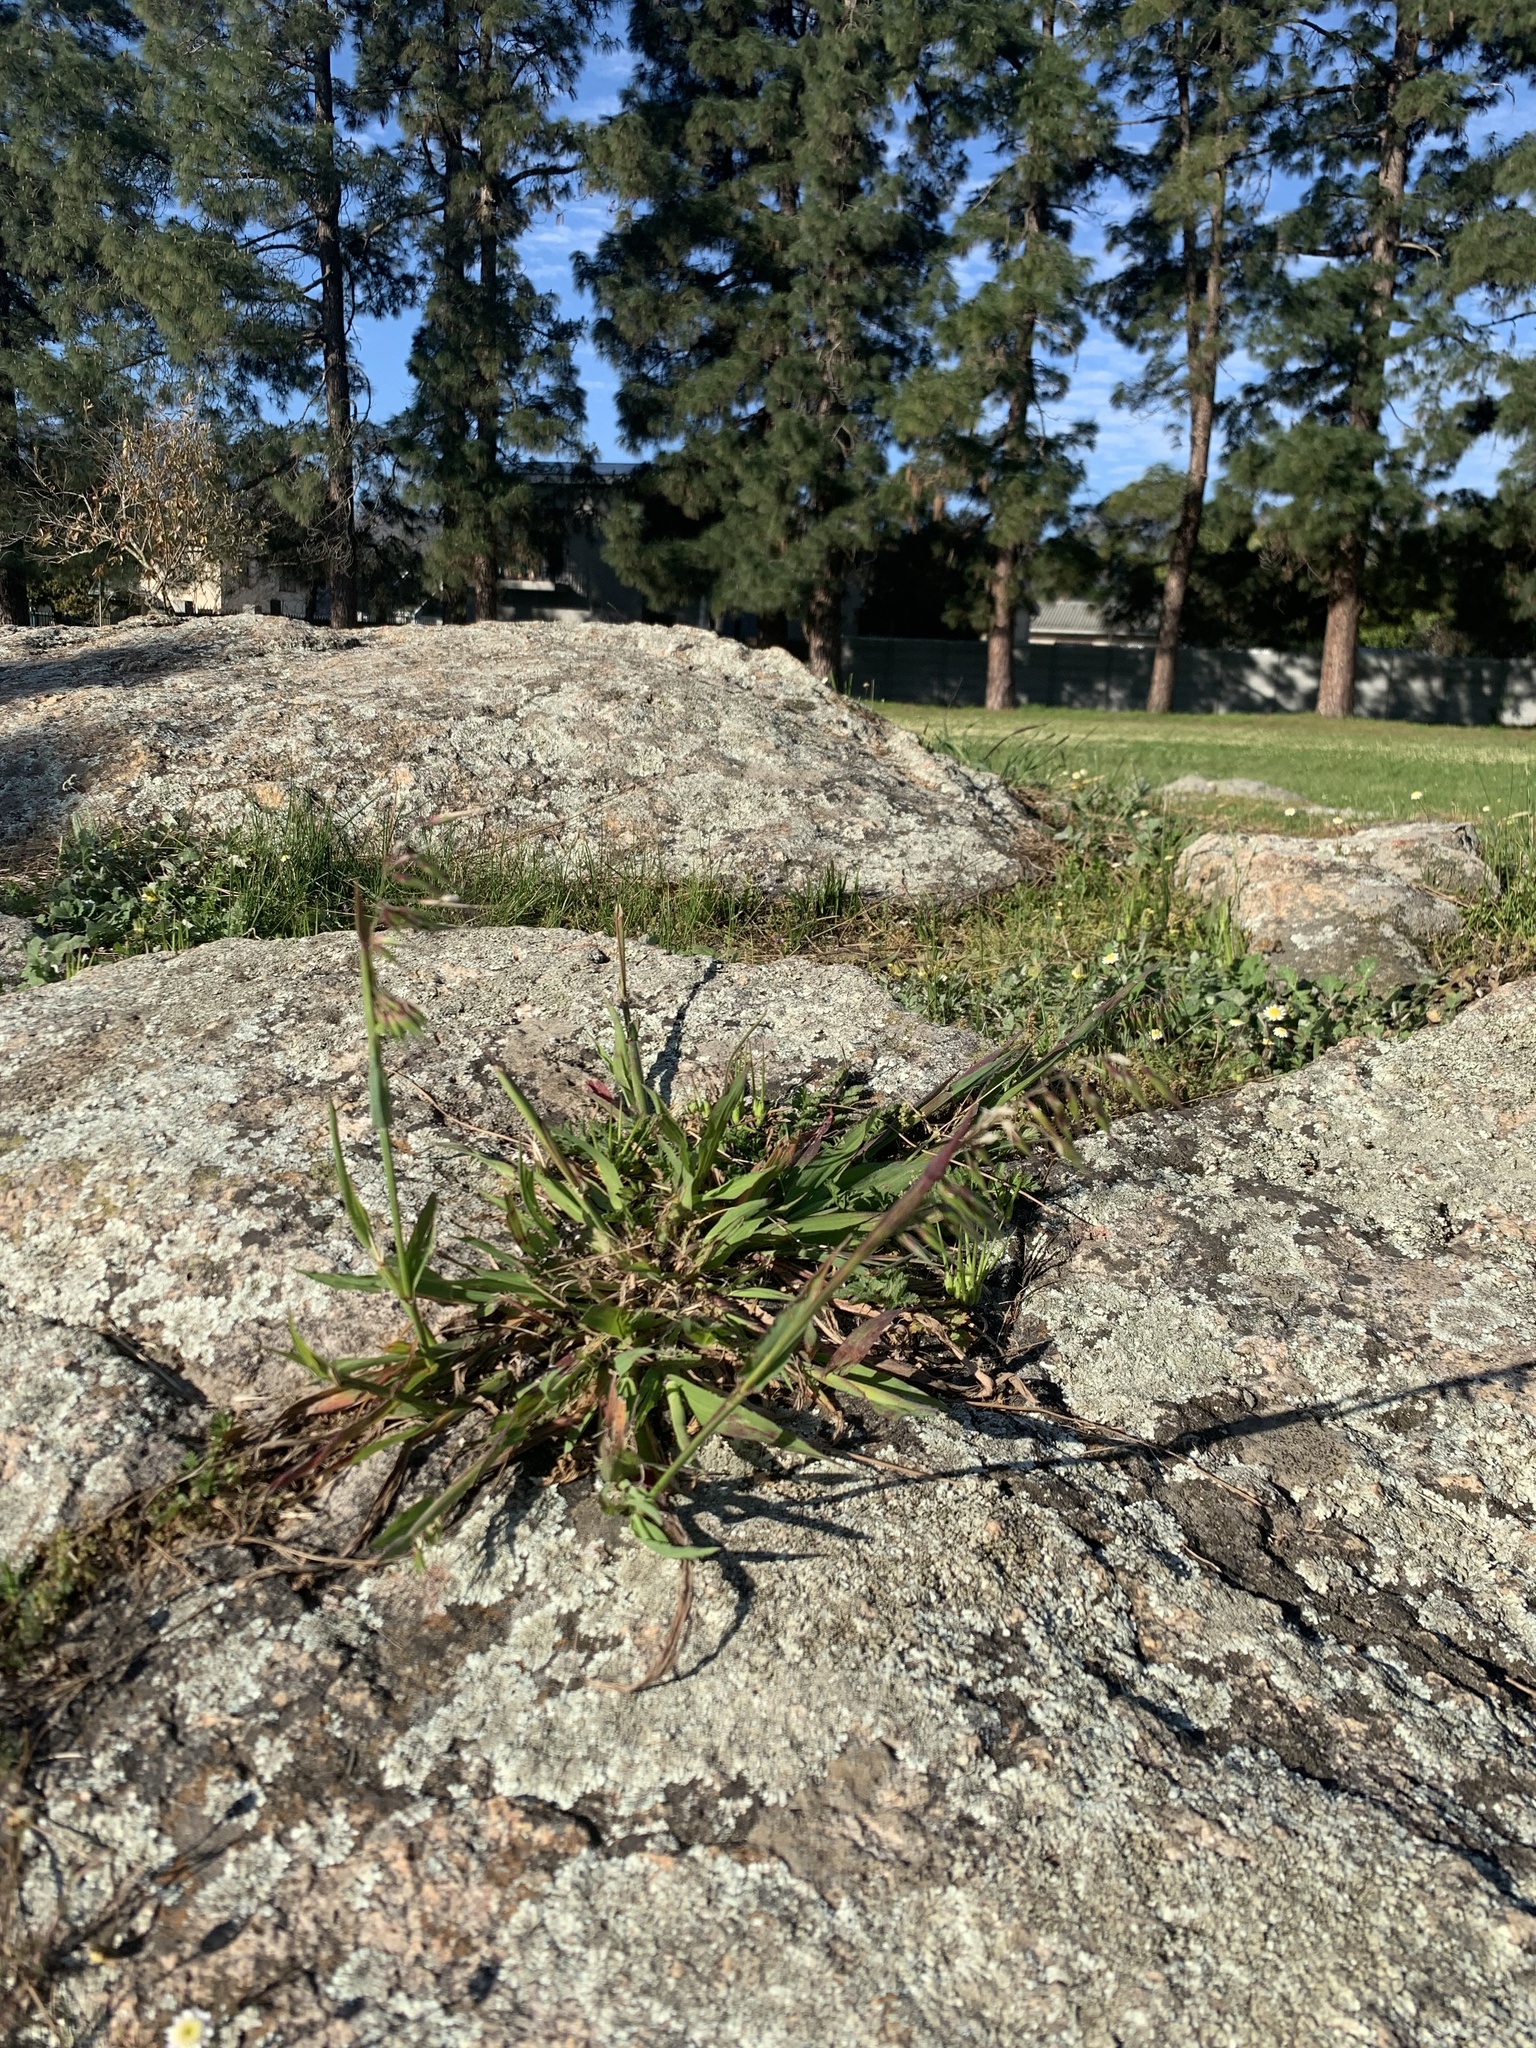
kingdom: Plantae
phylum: Tracheophyta
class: Liliopsida
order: Poales
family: Poaceae
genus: Ehrharta
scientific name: Ehrharta longiflora
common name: Longflowered veldtgrass
